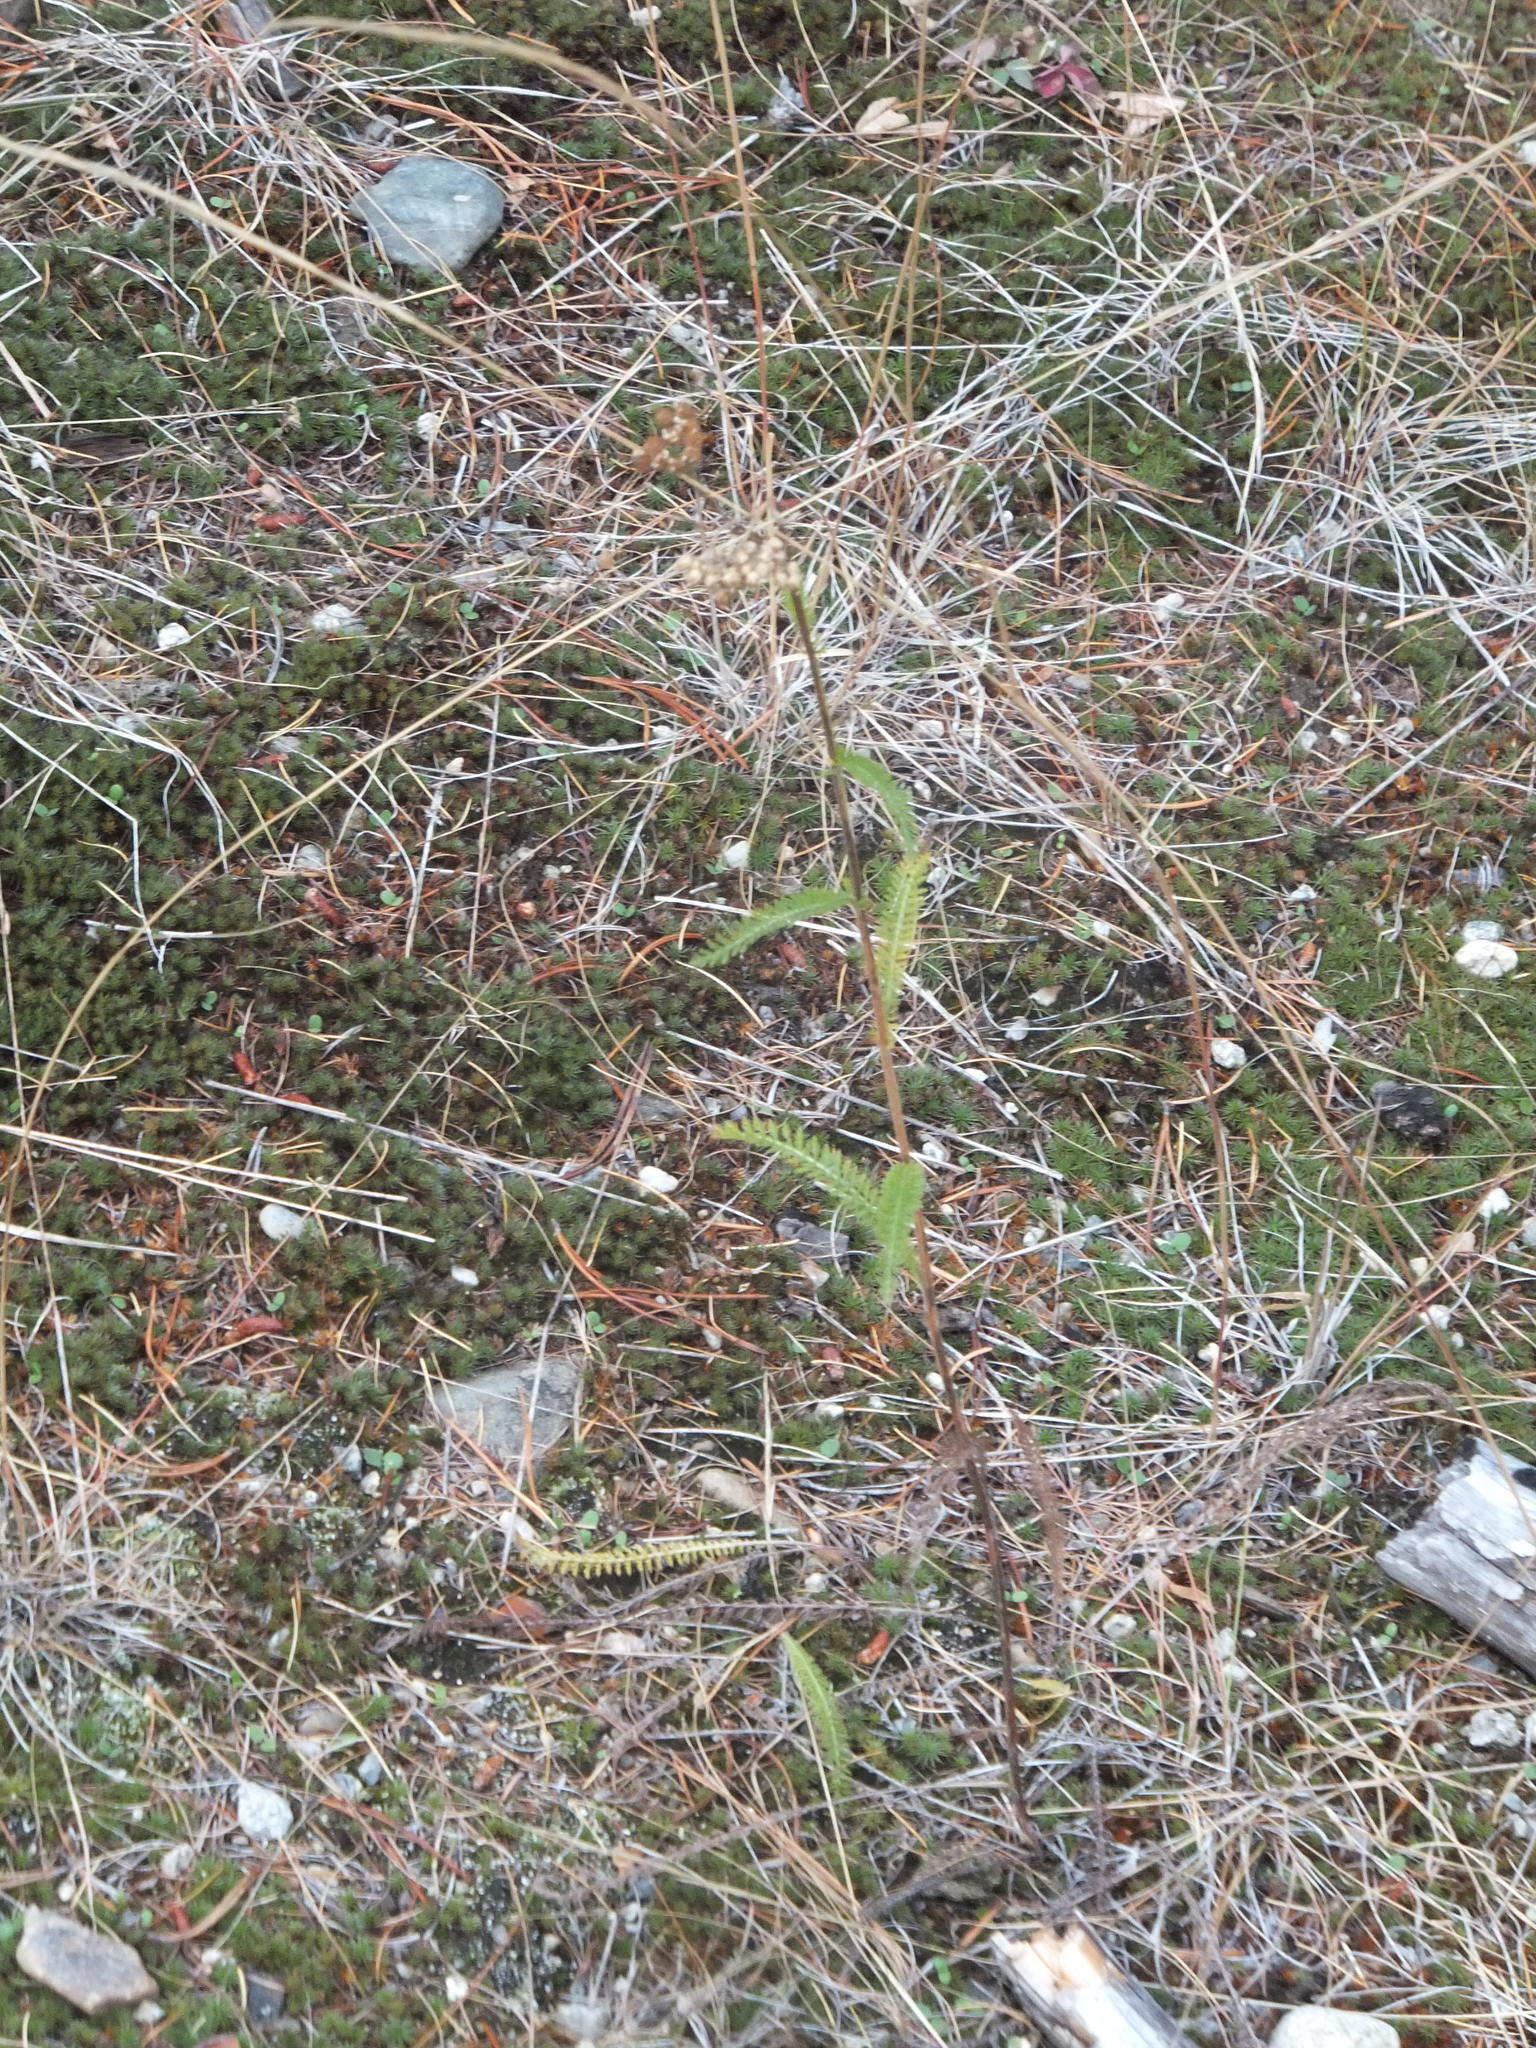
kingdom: Plantae
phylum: Tracheophyta
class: Magnoliopsida
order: Asterales
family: Asteraceae
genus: Achillea
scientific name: Achillea millefolium
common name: Yarrow
